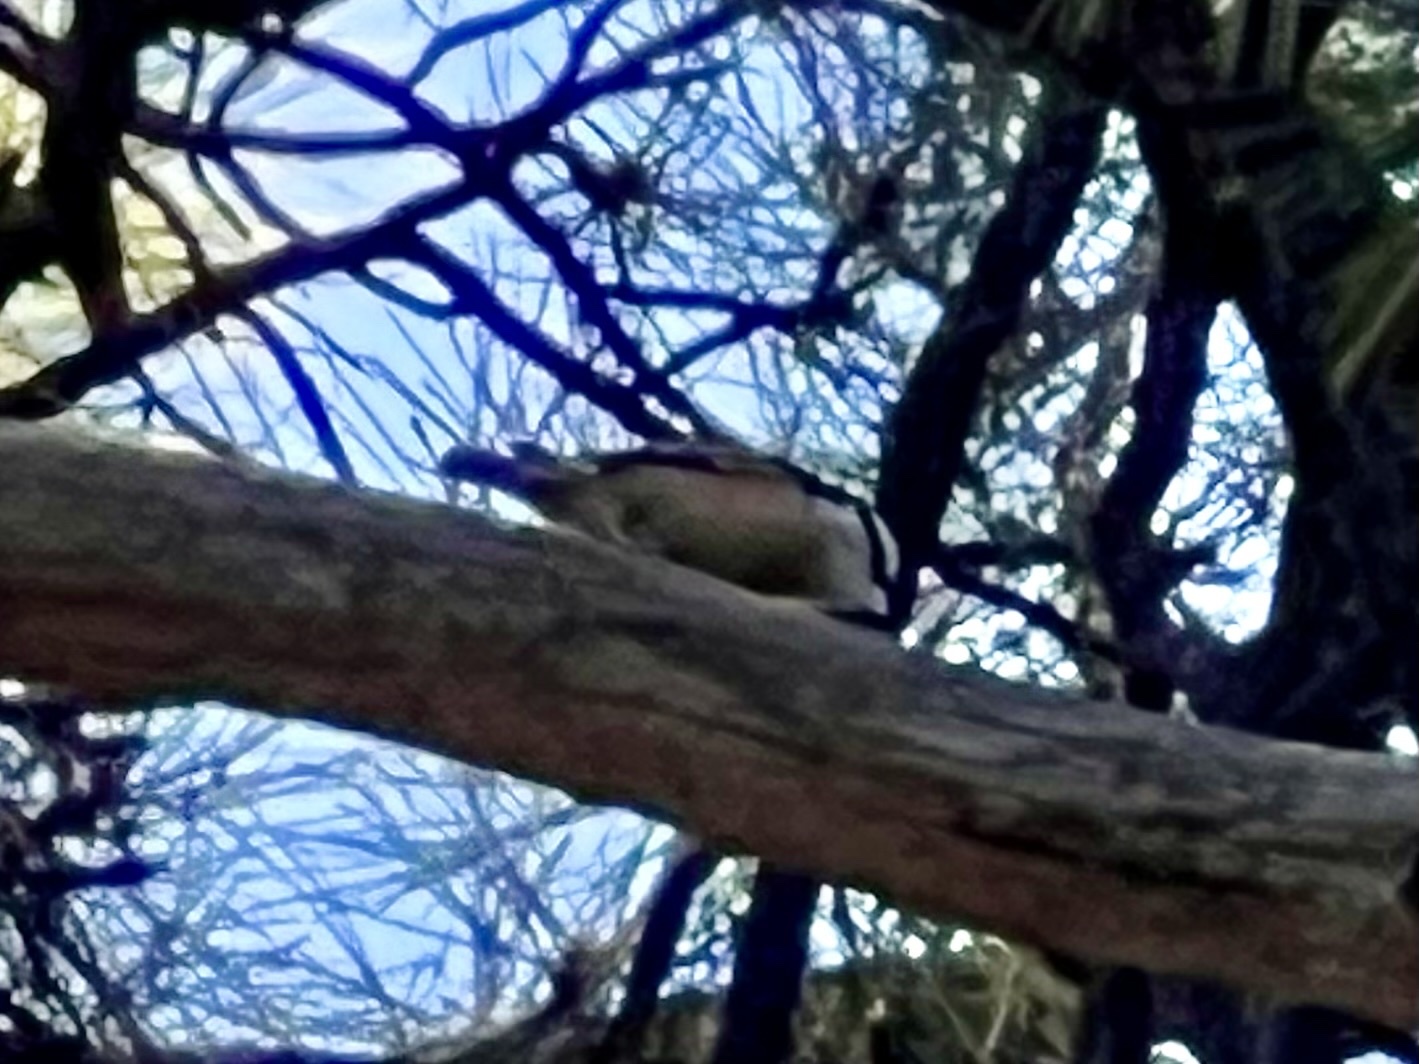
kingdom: Animalia
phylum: Chordata
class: Aves
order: Passeriformes
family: Sittidae
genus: Sitta
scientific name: Sitta canadensis
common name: Red-breasted nuthatch
